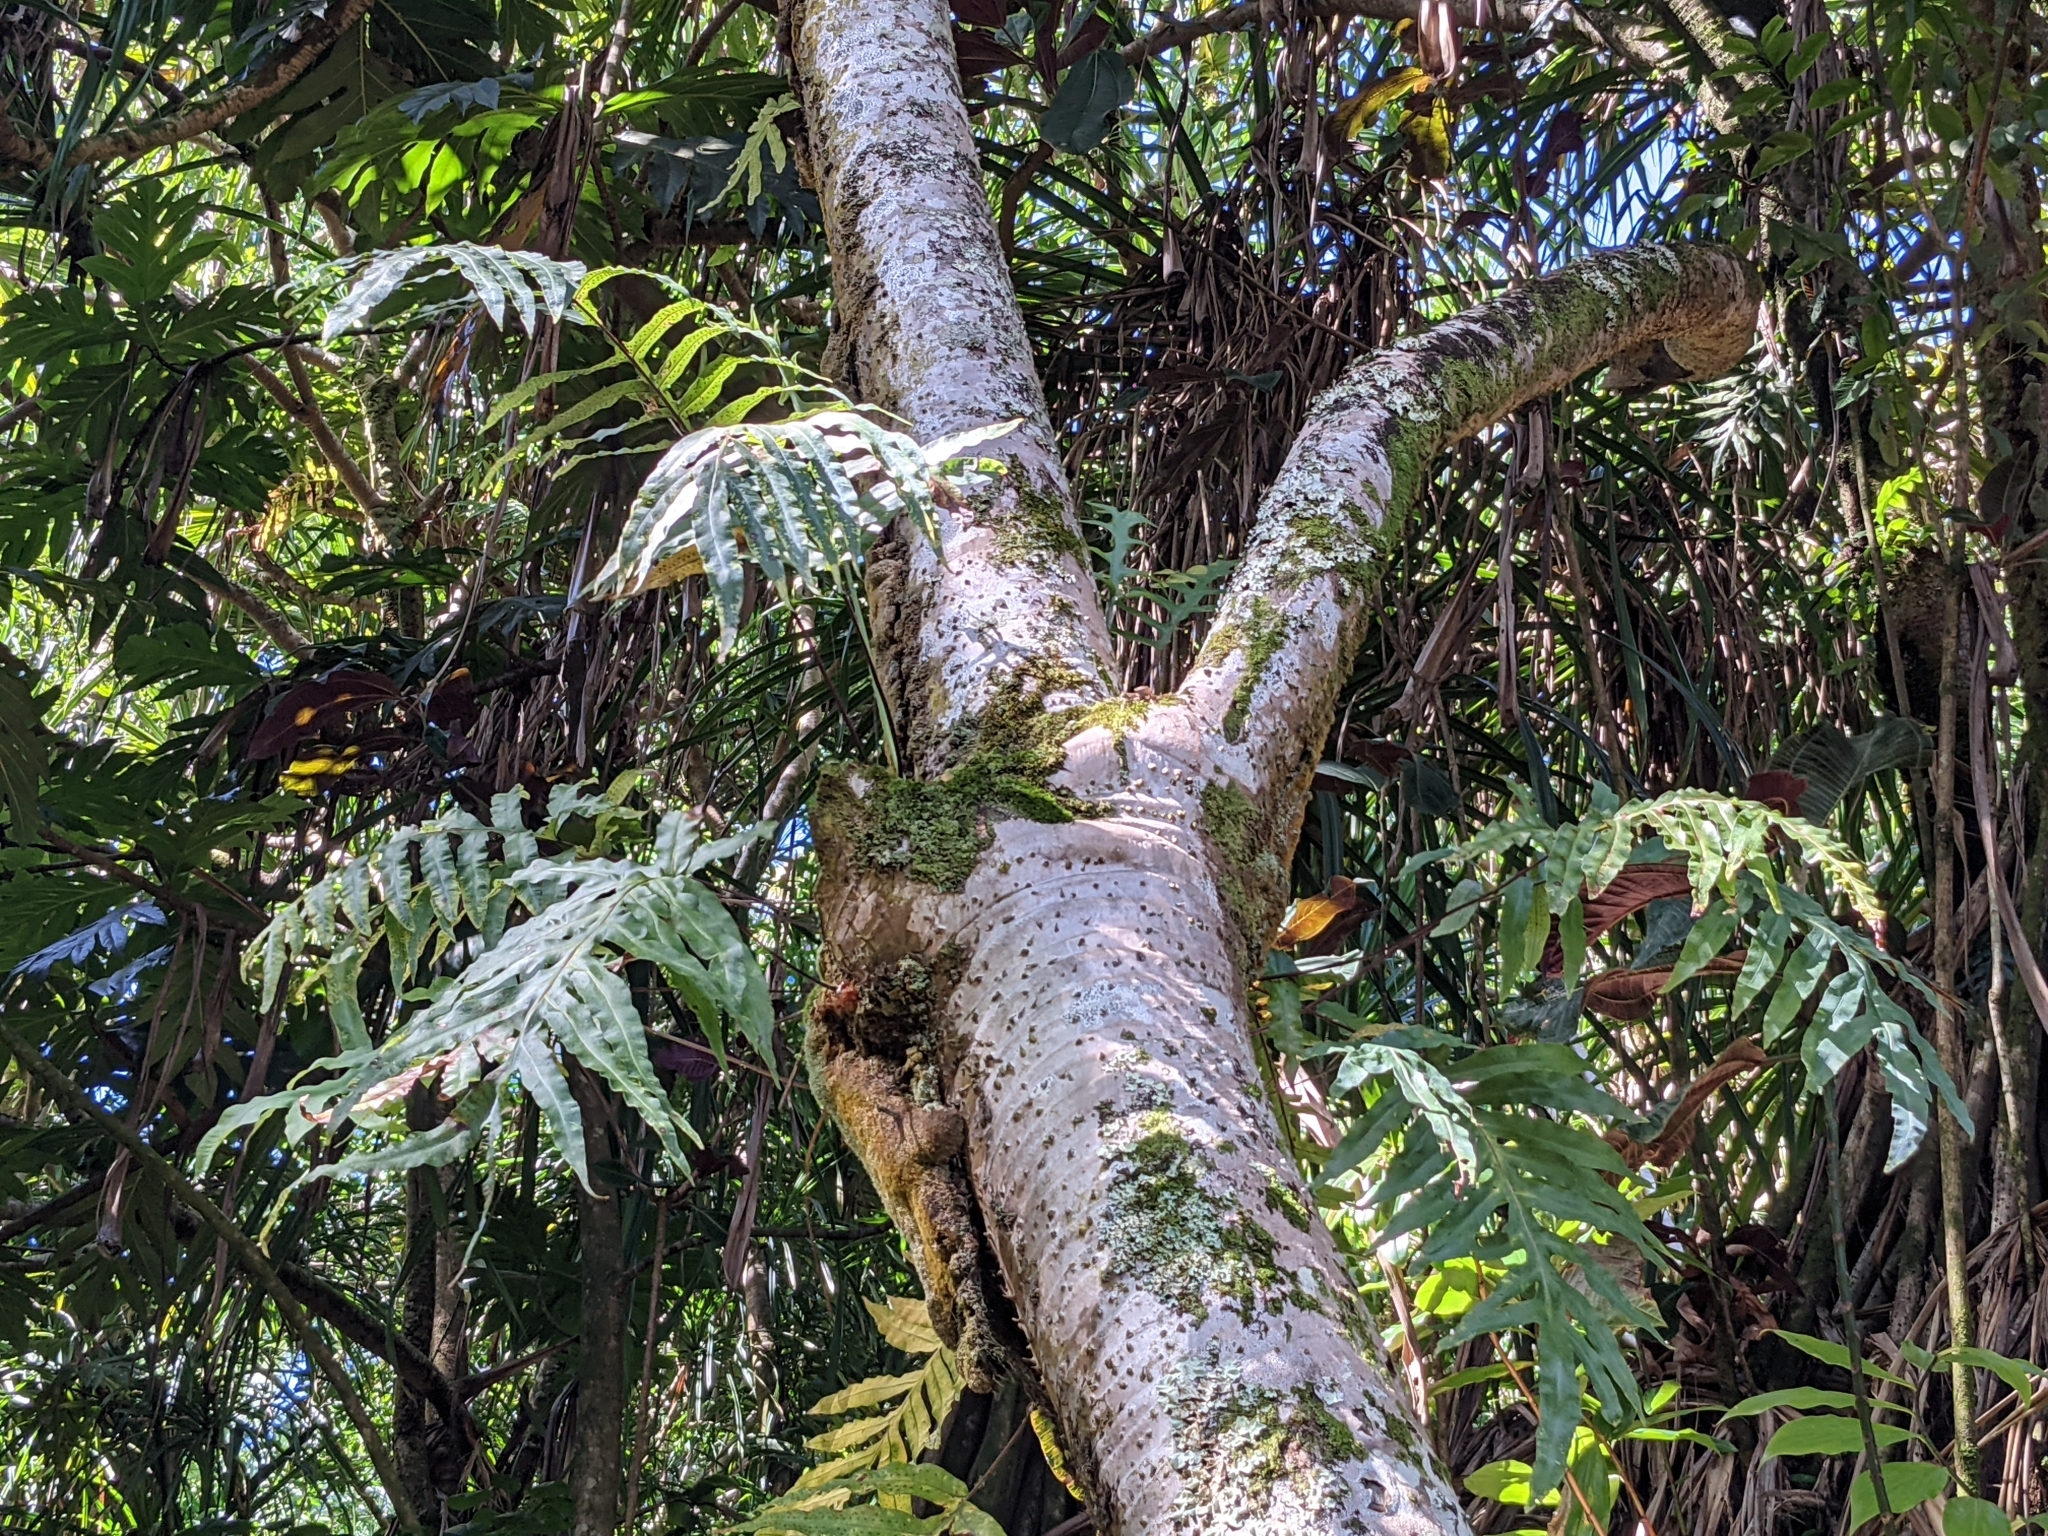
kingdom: Plantae
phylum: Tracheophyta
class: Polypodiopsida
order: Polypodiales
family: Polypodiaceae
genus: Phlebodium
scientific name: Phlebodium aureum
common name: Gold-foot fern
